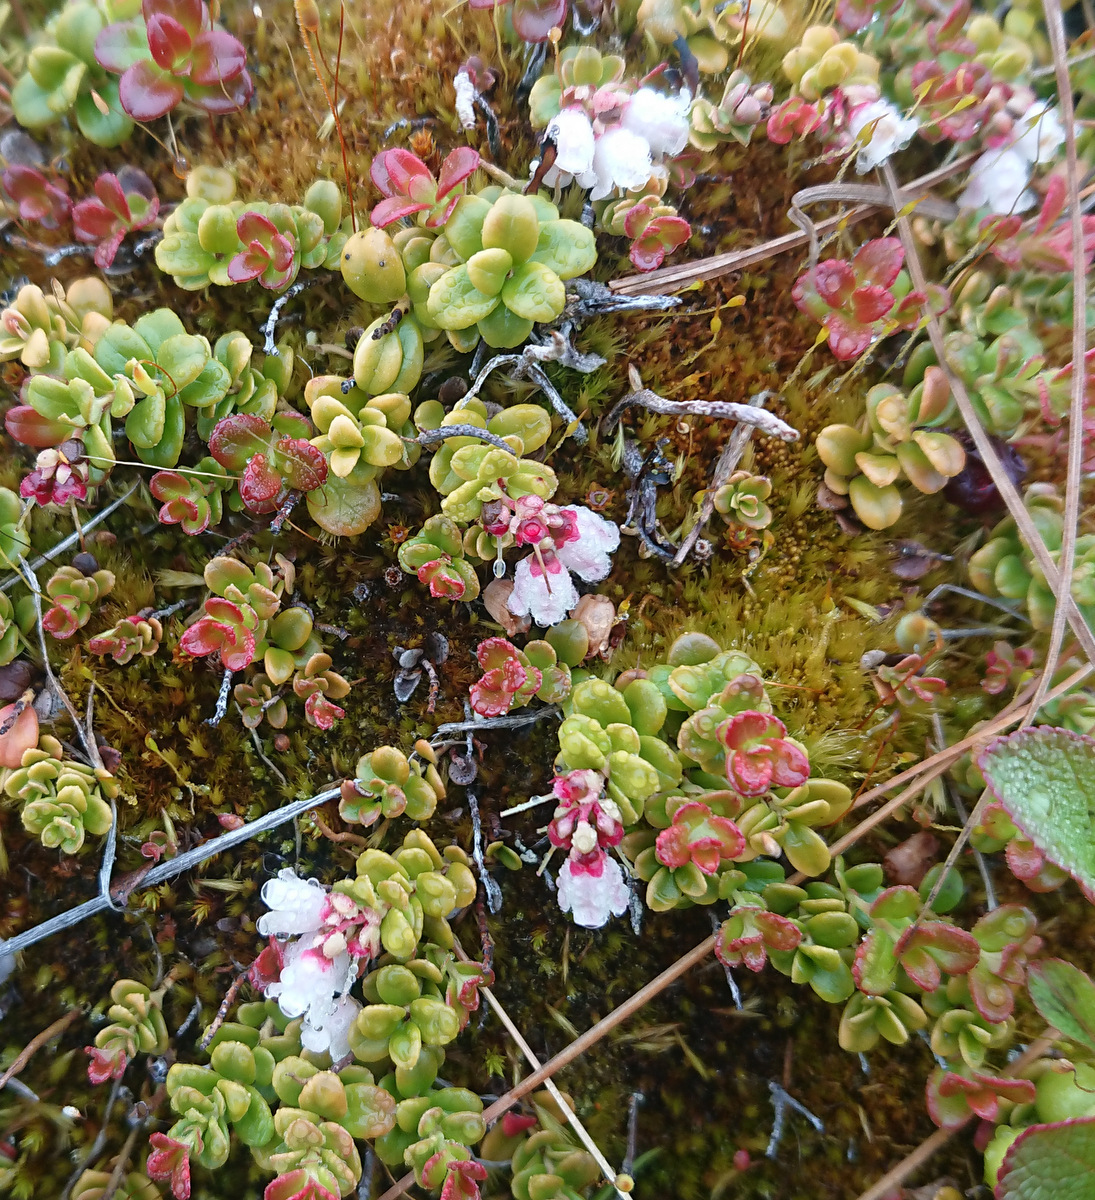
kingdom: Plantae
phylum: Tracheophyta
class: Magnoliopsida
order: Ericales
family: Ericaceae
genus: Vaccinium
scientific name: Vaccinium vitis-idaea
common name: Cowberry
